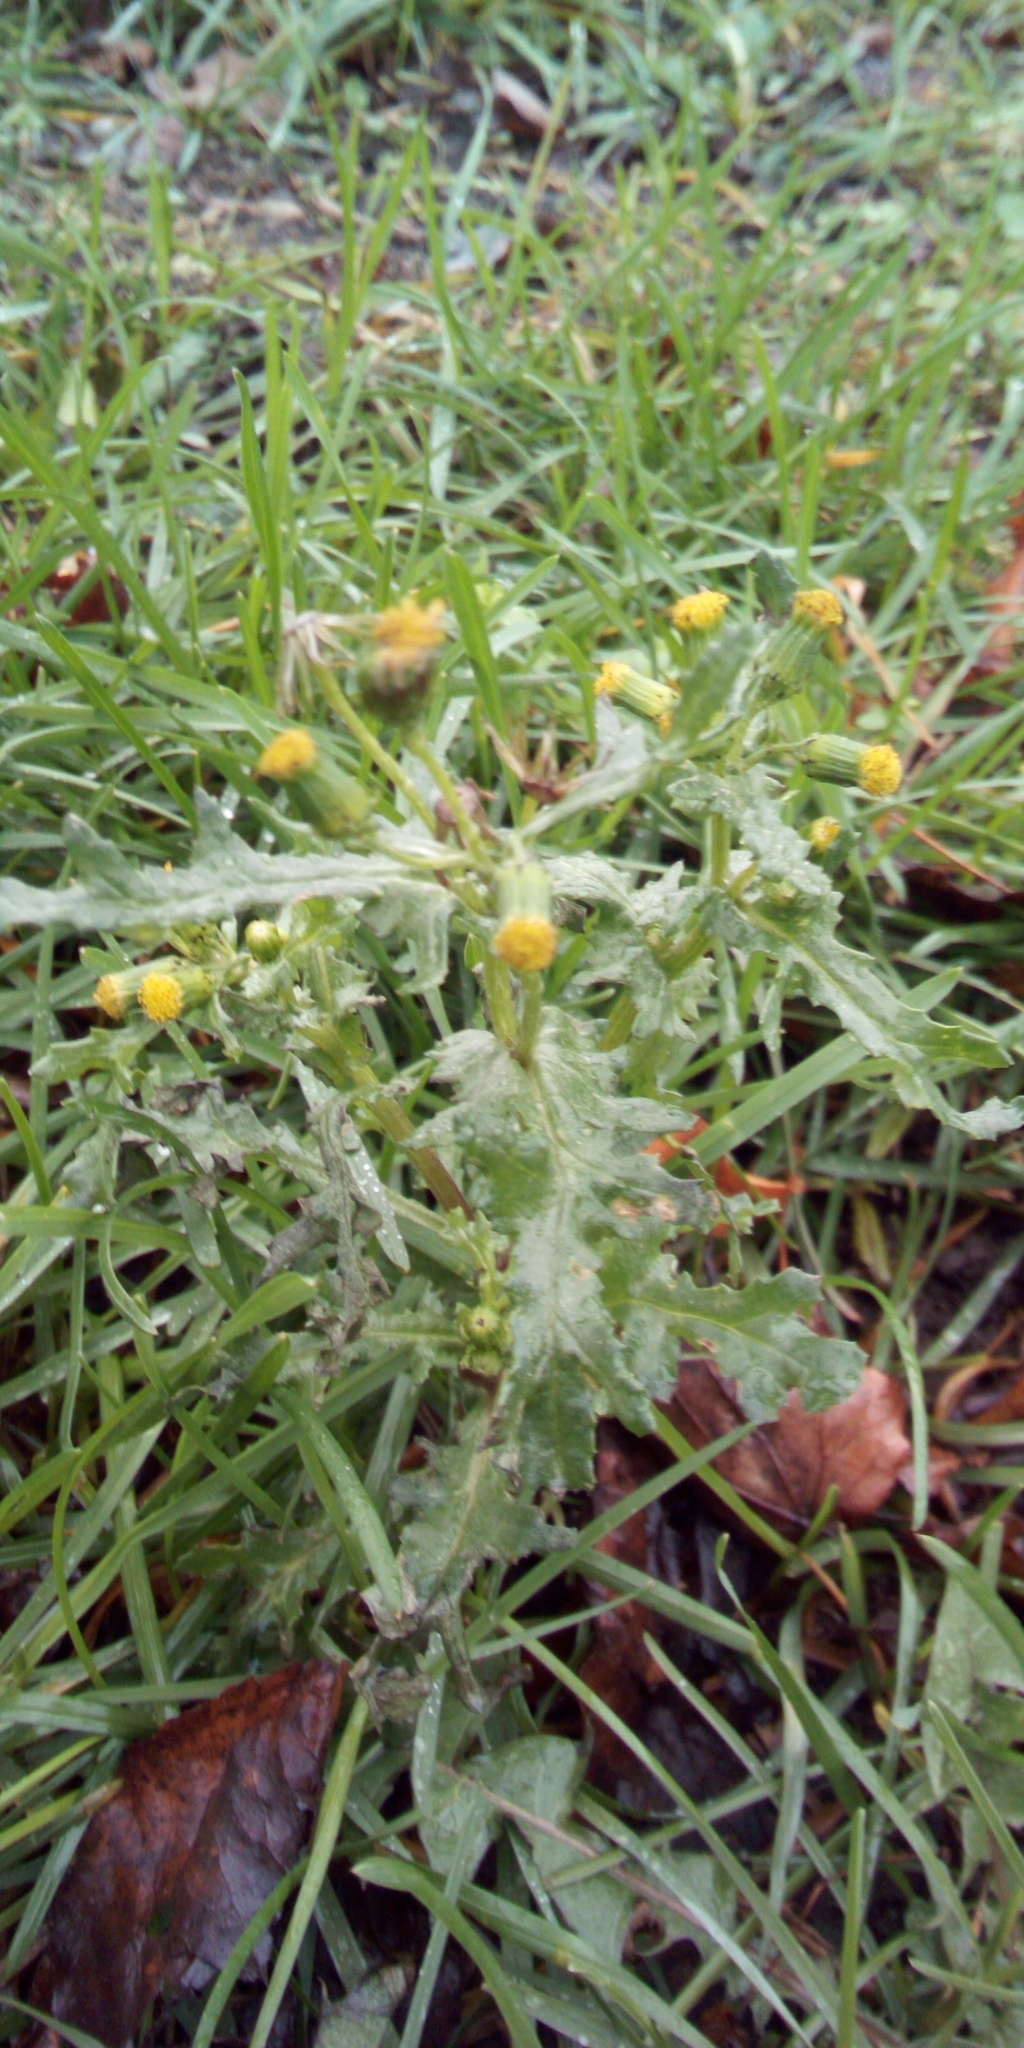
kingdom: Plantae
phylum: Tracheophyta
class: Magnoliopsida
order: Asterales
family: Asteraceae
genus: Senecio
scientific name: Senecio vulgaris
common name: Old-man-in-the-spring
